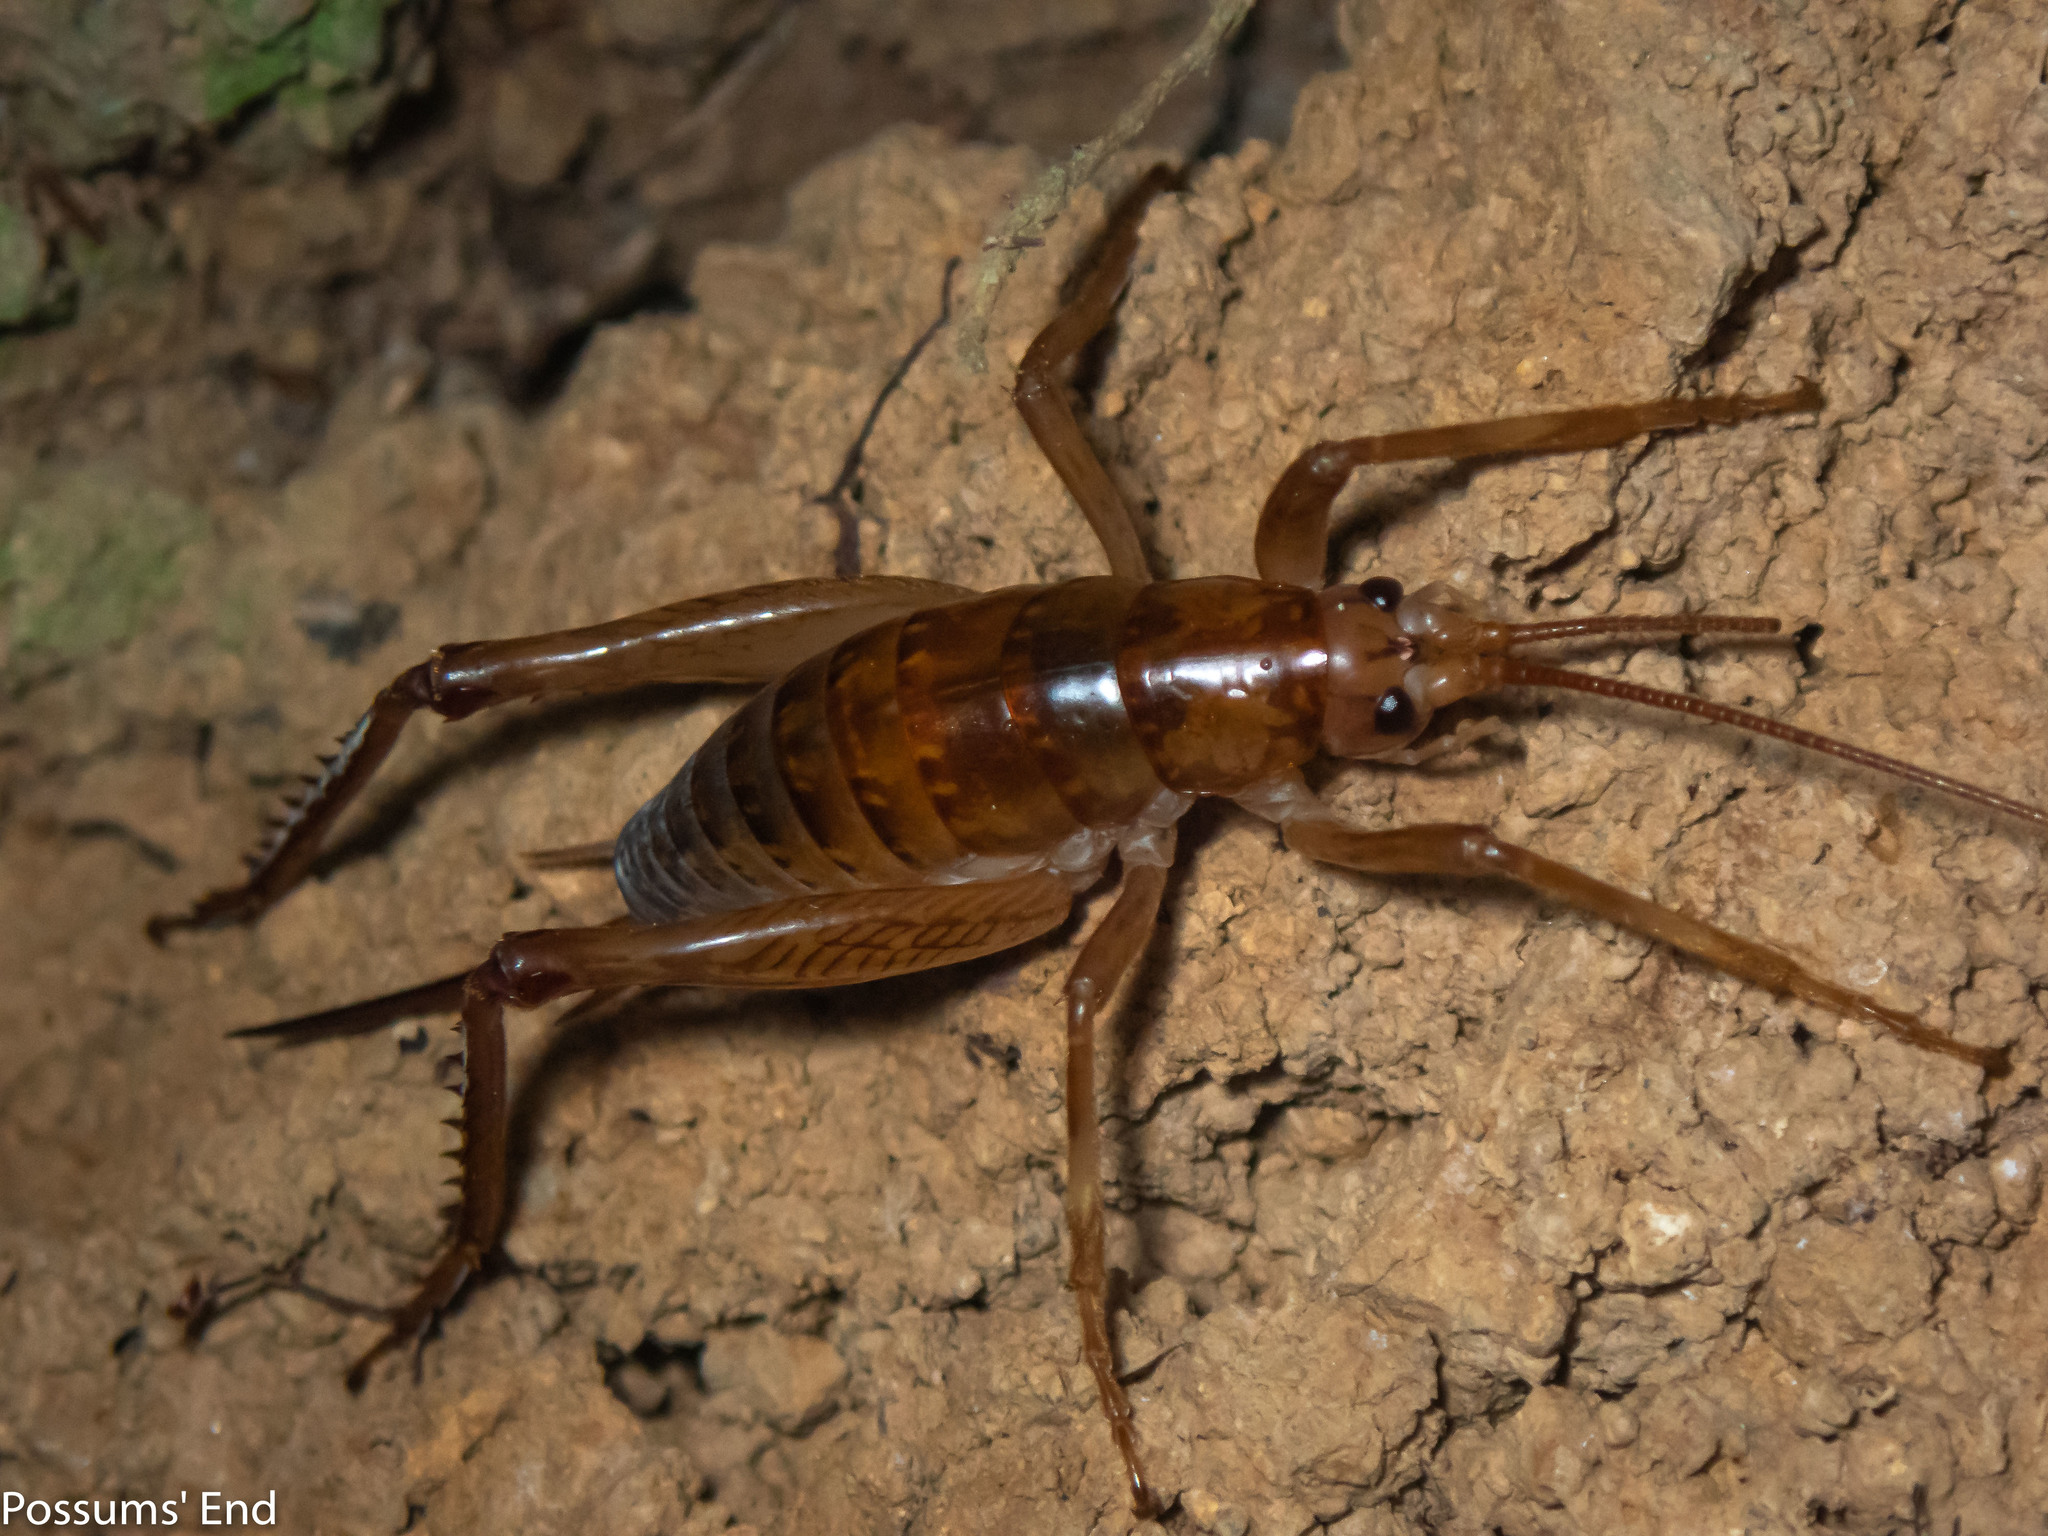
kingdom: Animalia
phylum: Arthropoda
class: Insecta
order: Orthoptera
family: Rhaphidophoridae
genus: Talitropsis
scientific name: Talitropsis sedilloti
